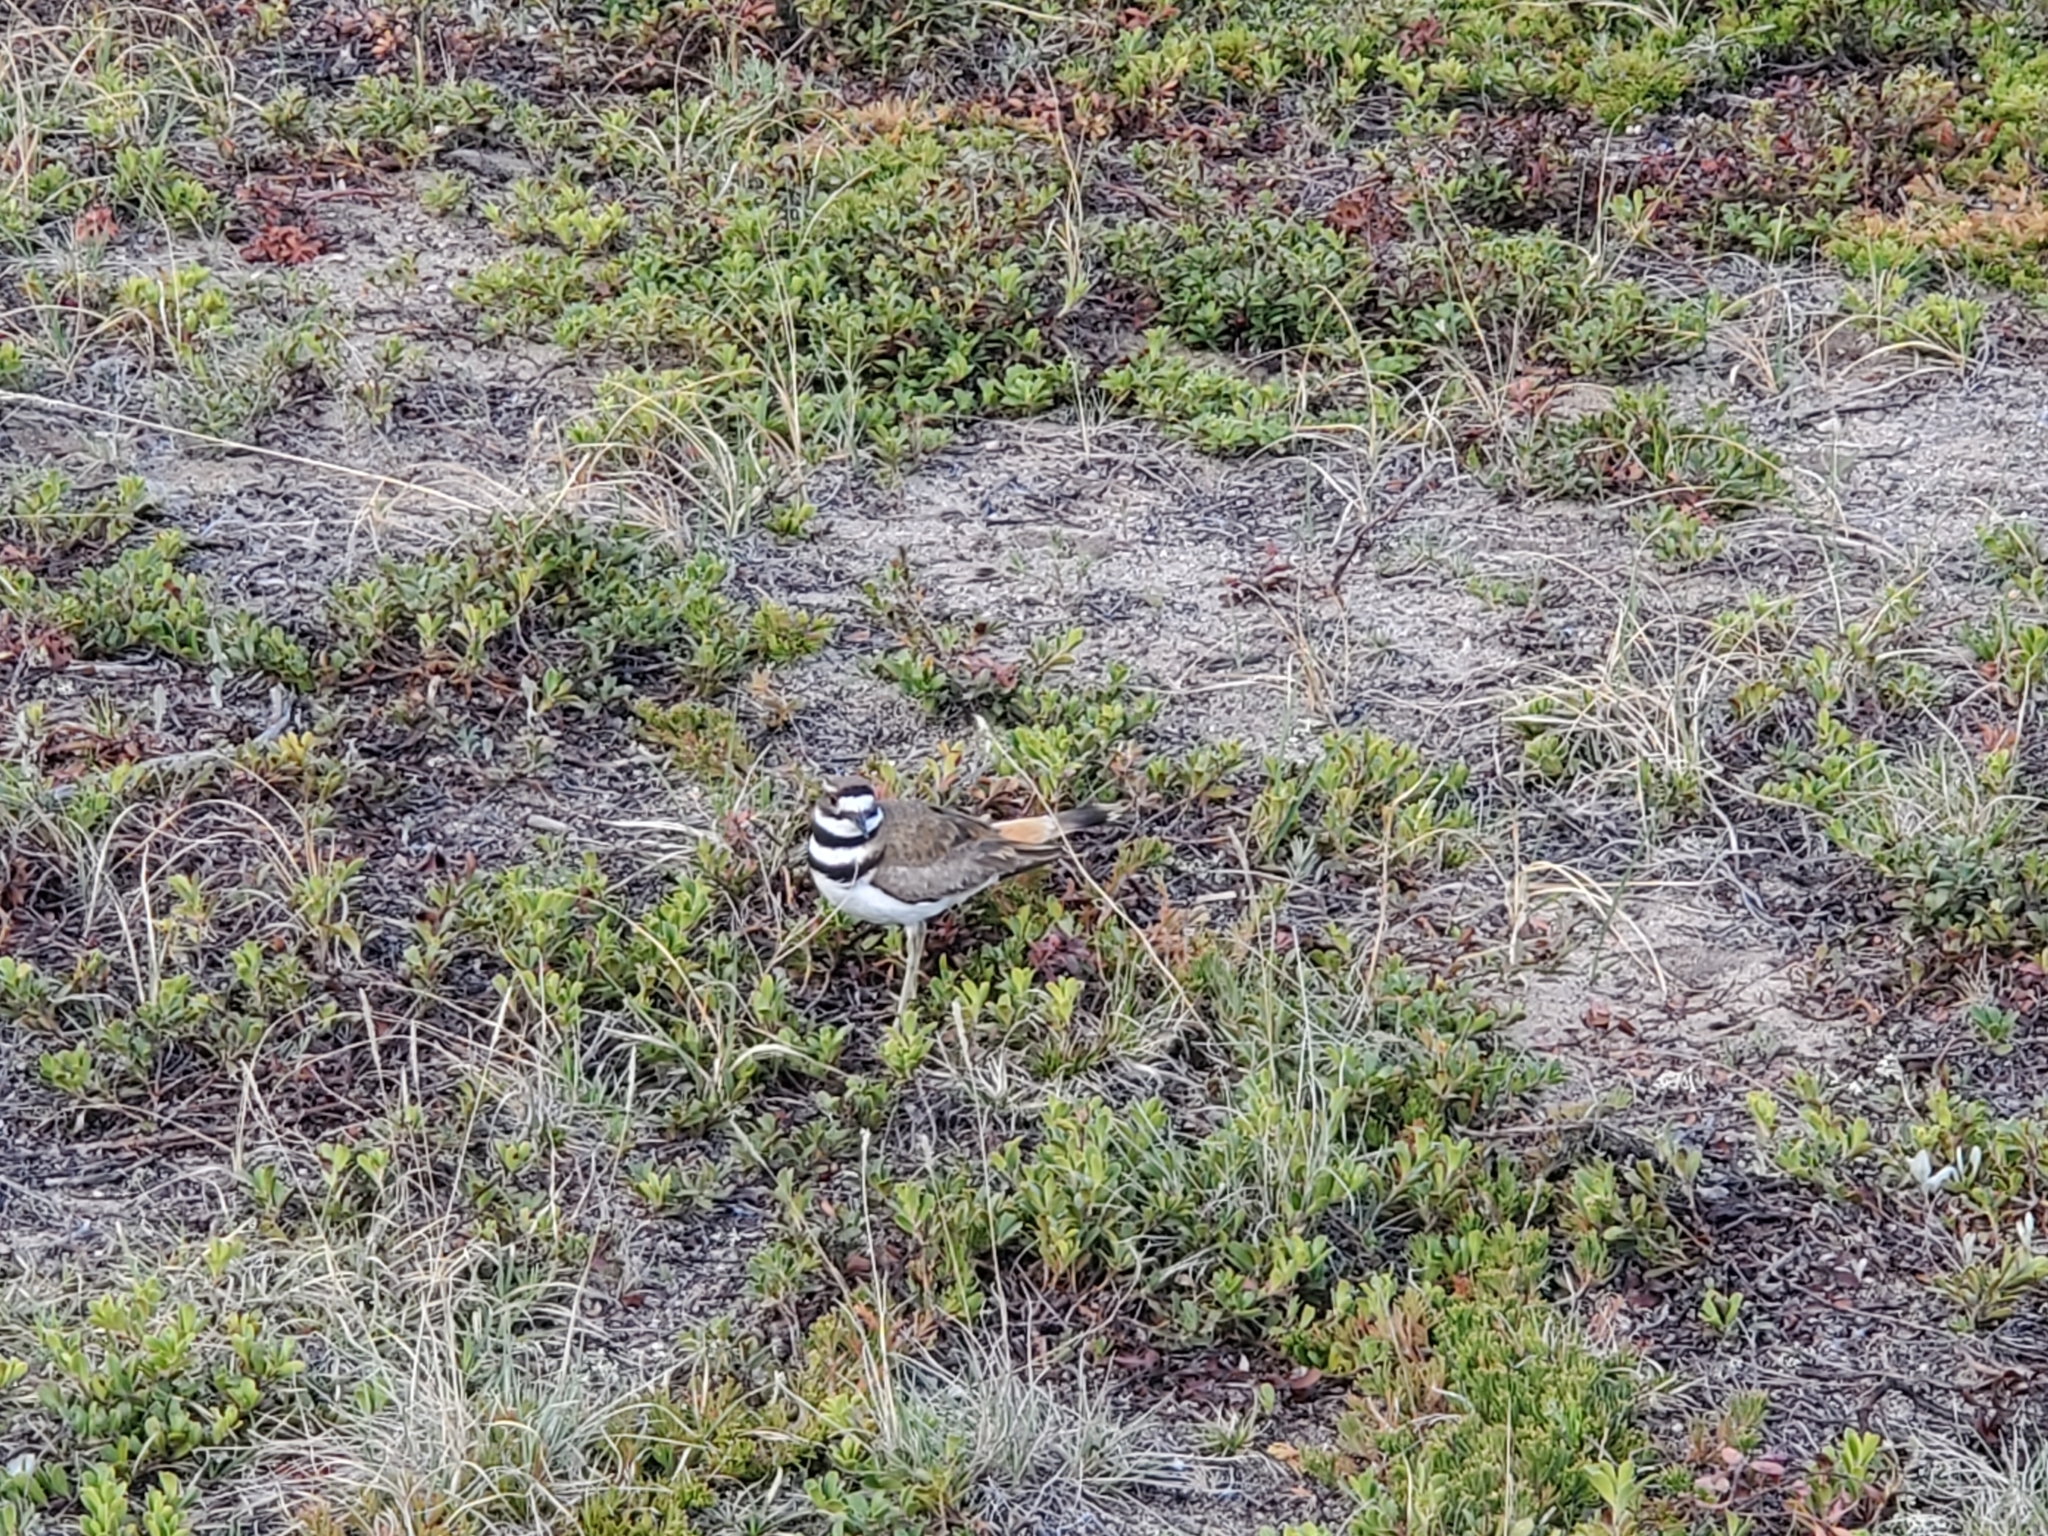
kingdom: Animalia
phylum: Chordata
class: Aves
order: Charadriiformes
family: Charadriidae
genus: Charadrius
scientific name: Charadrius vociferus
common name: Killdeer
